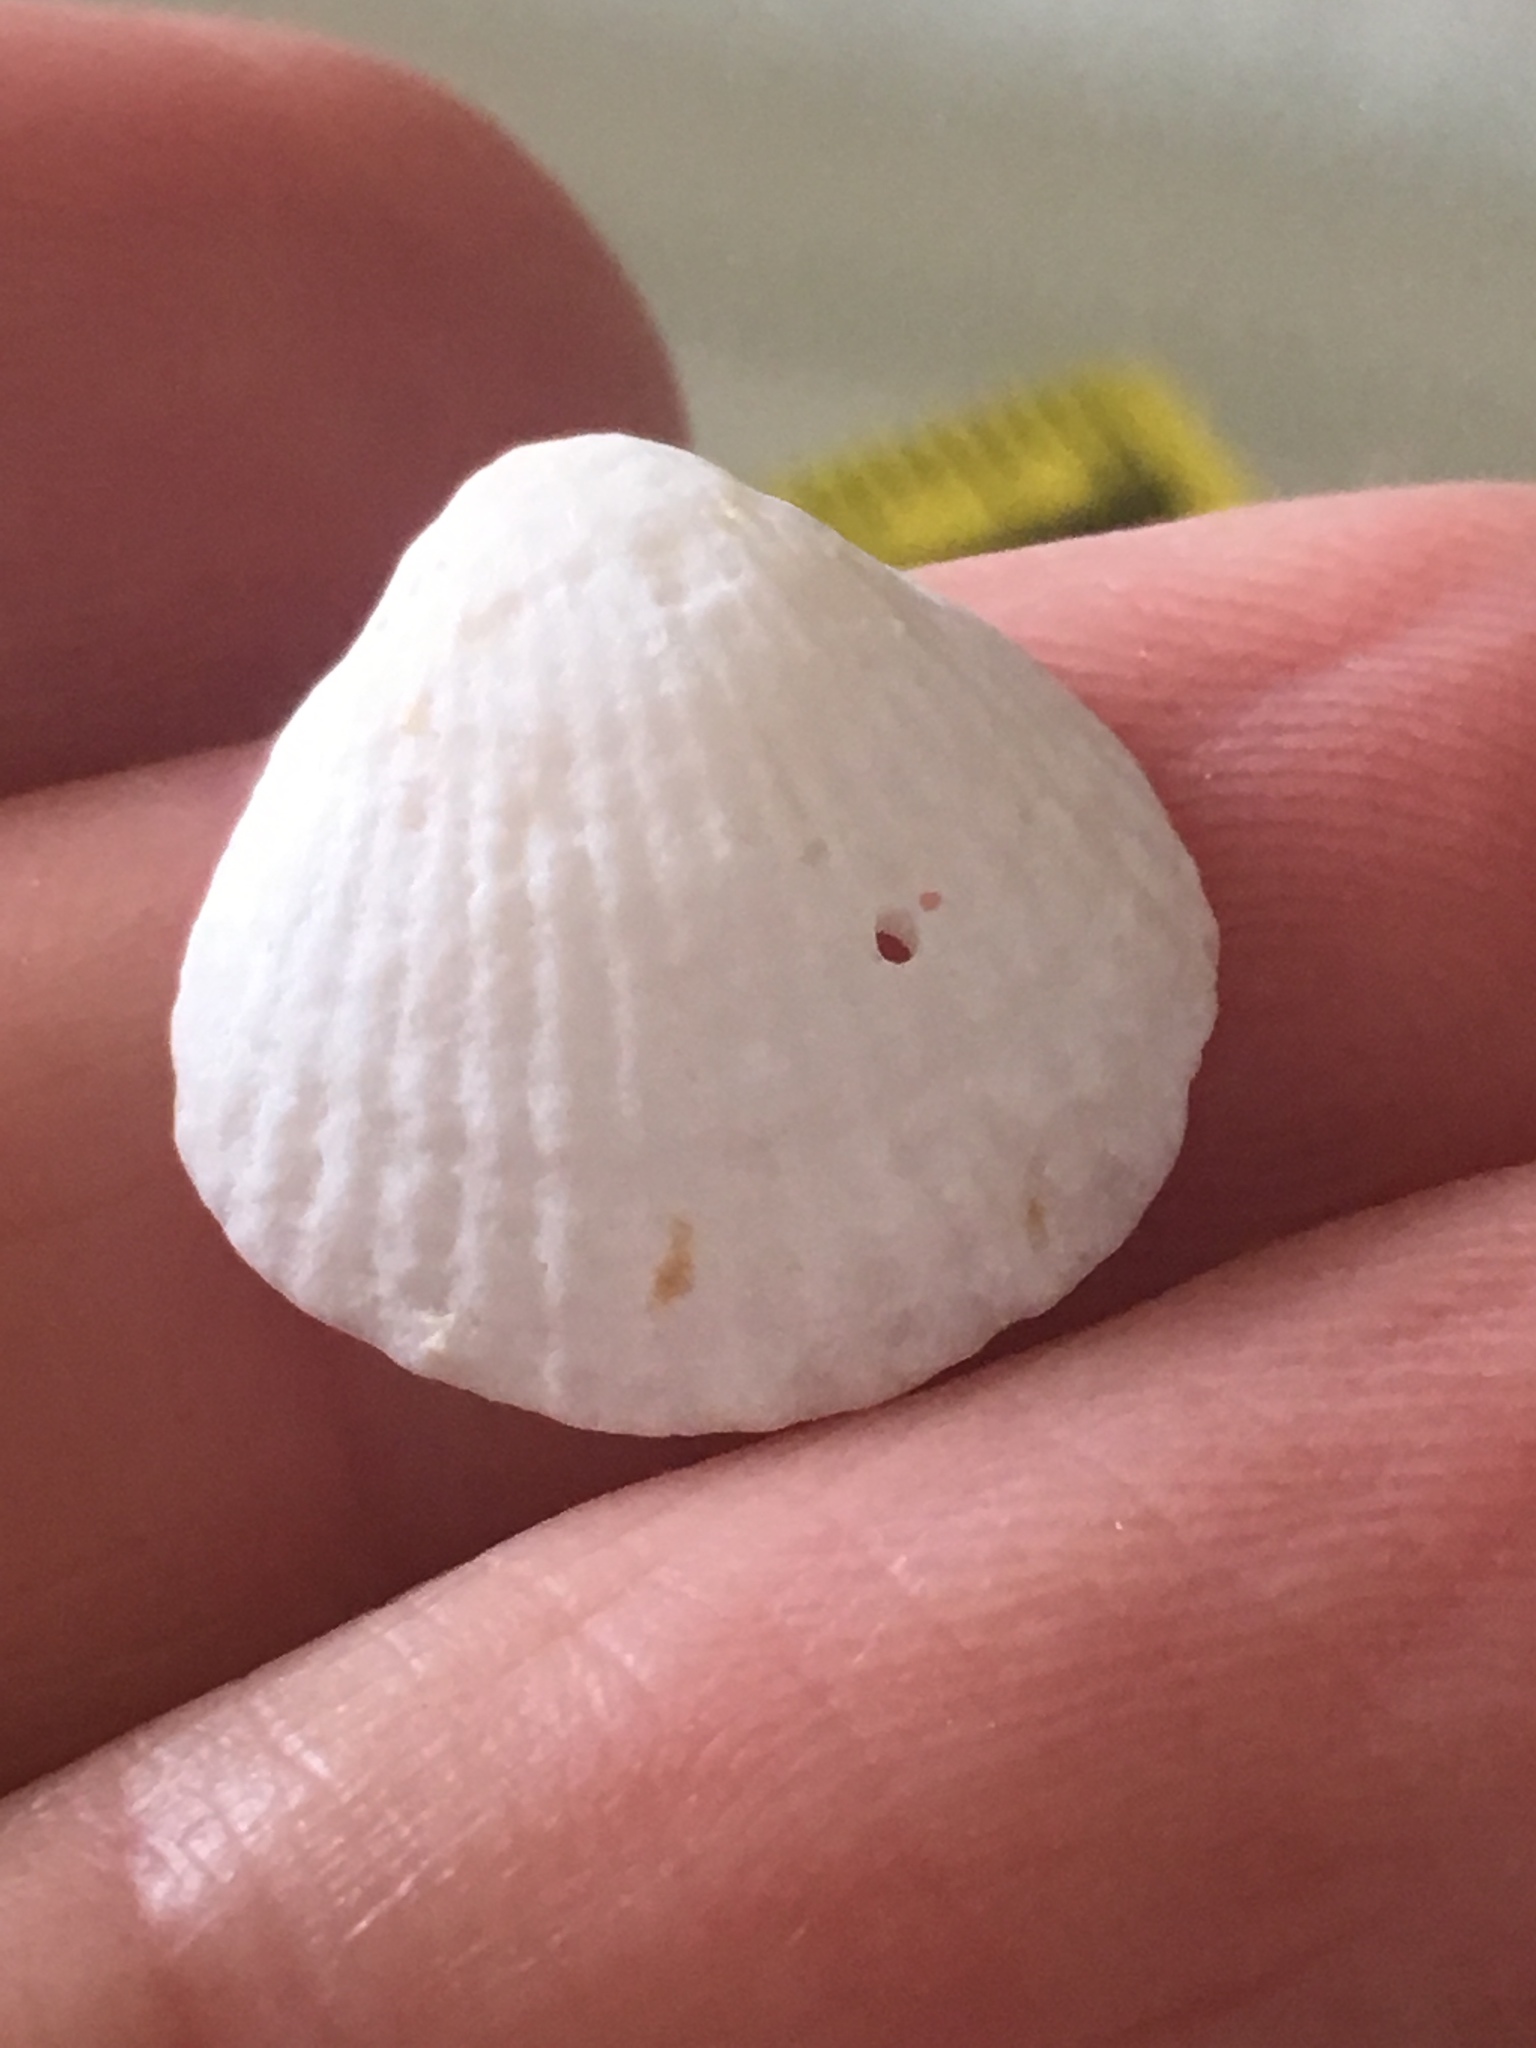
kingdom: Animalia
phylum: Mollusca
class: Bivalvia
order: Arcida
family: Glycymerididae
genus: Tucetona
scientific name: Tucetona pectinata
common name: Comb bittersweet
